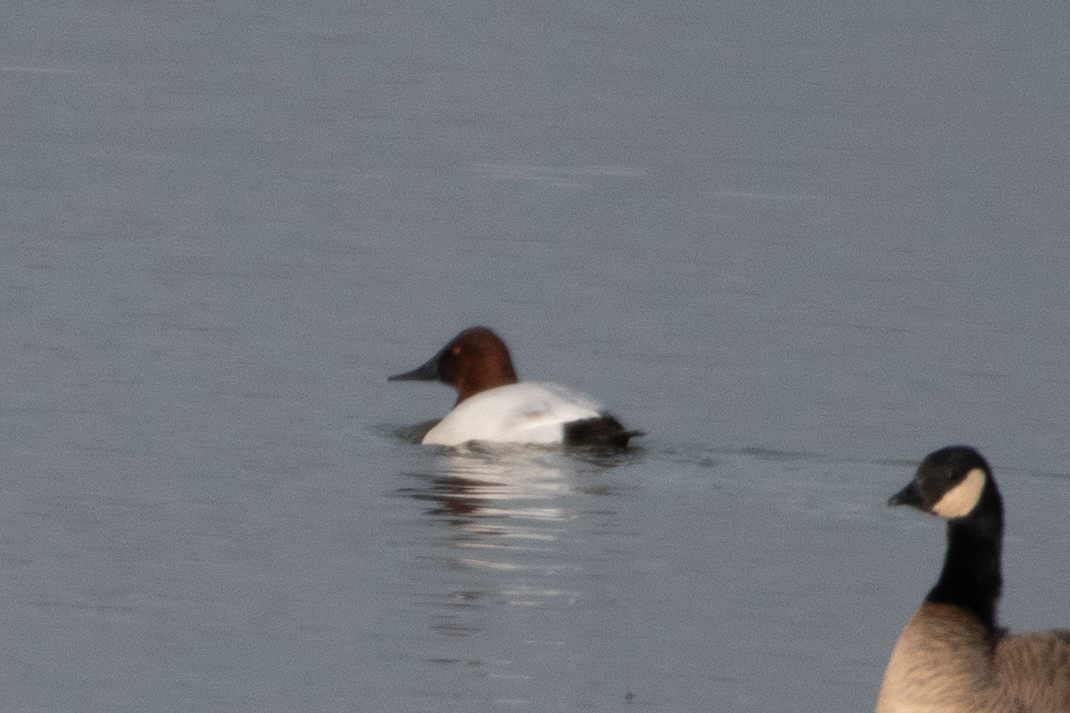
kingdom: Animalia
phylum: Chordata
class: Aves
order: Anseriformes
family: Anatidae
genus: Aythya
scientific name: Aythya valisineria
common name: Canvasback
